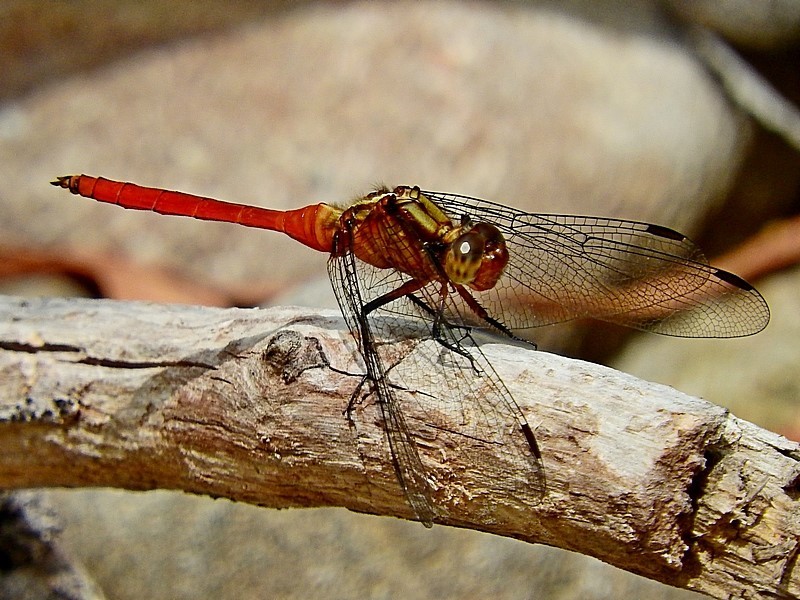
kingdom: Animalia
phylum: Arthropoda
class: Insecta
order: Odonata
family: Libellulidae
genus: Orthetrum
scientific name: Orthetrum villosovittatum
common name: Firery skimmer
